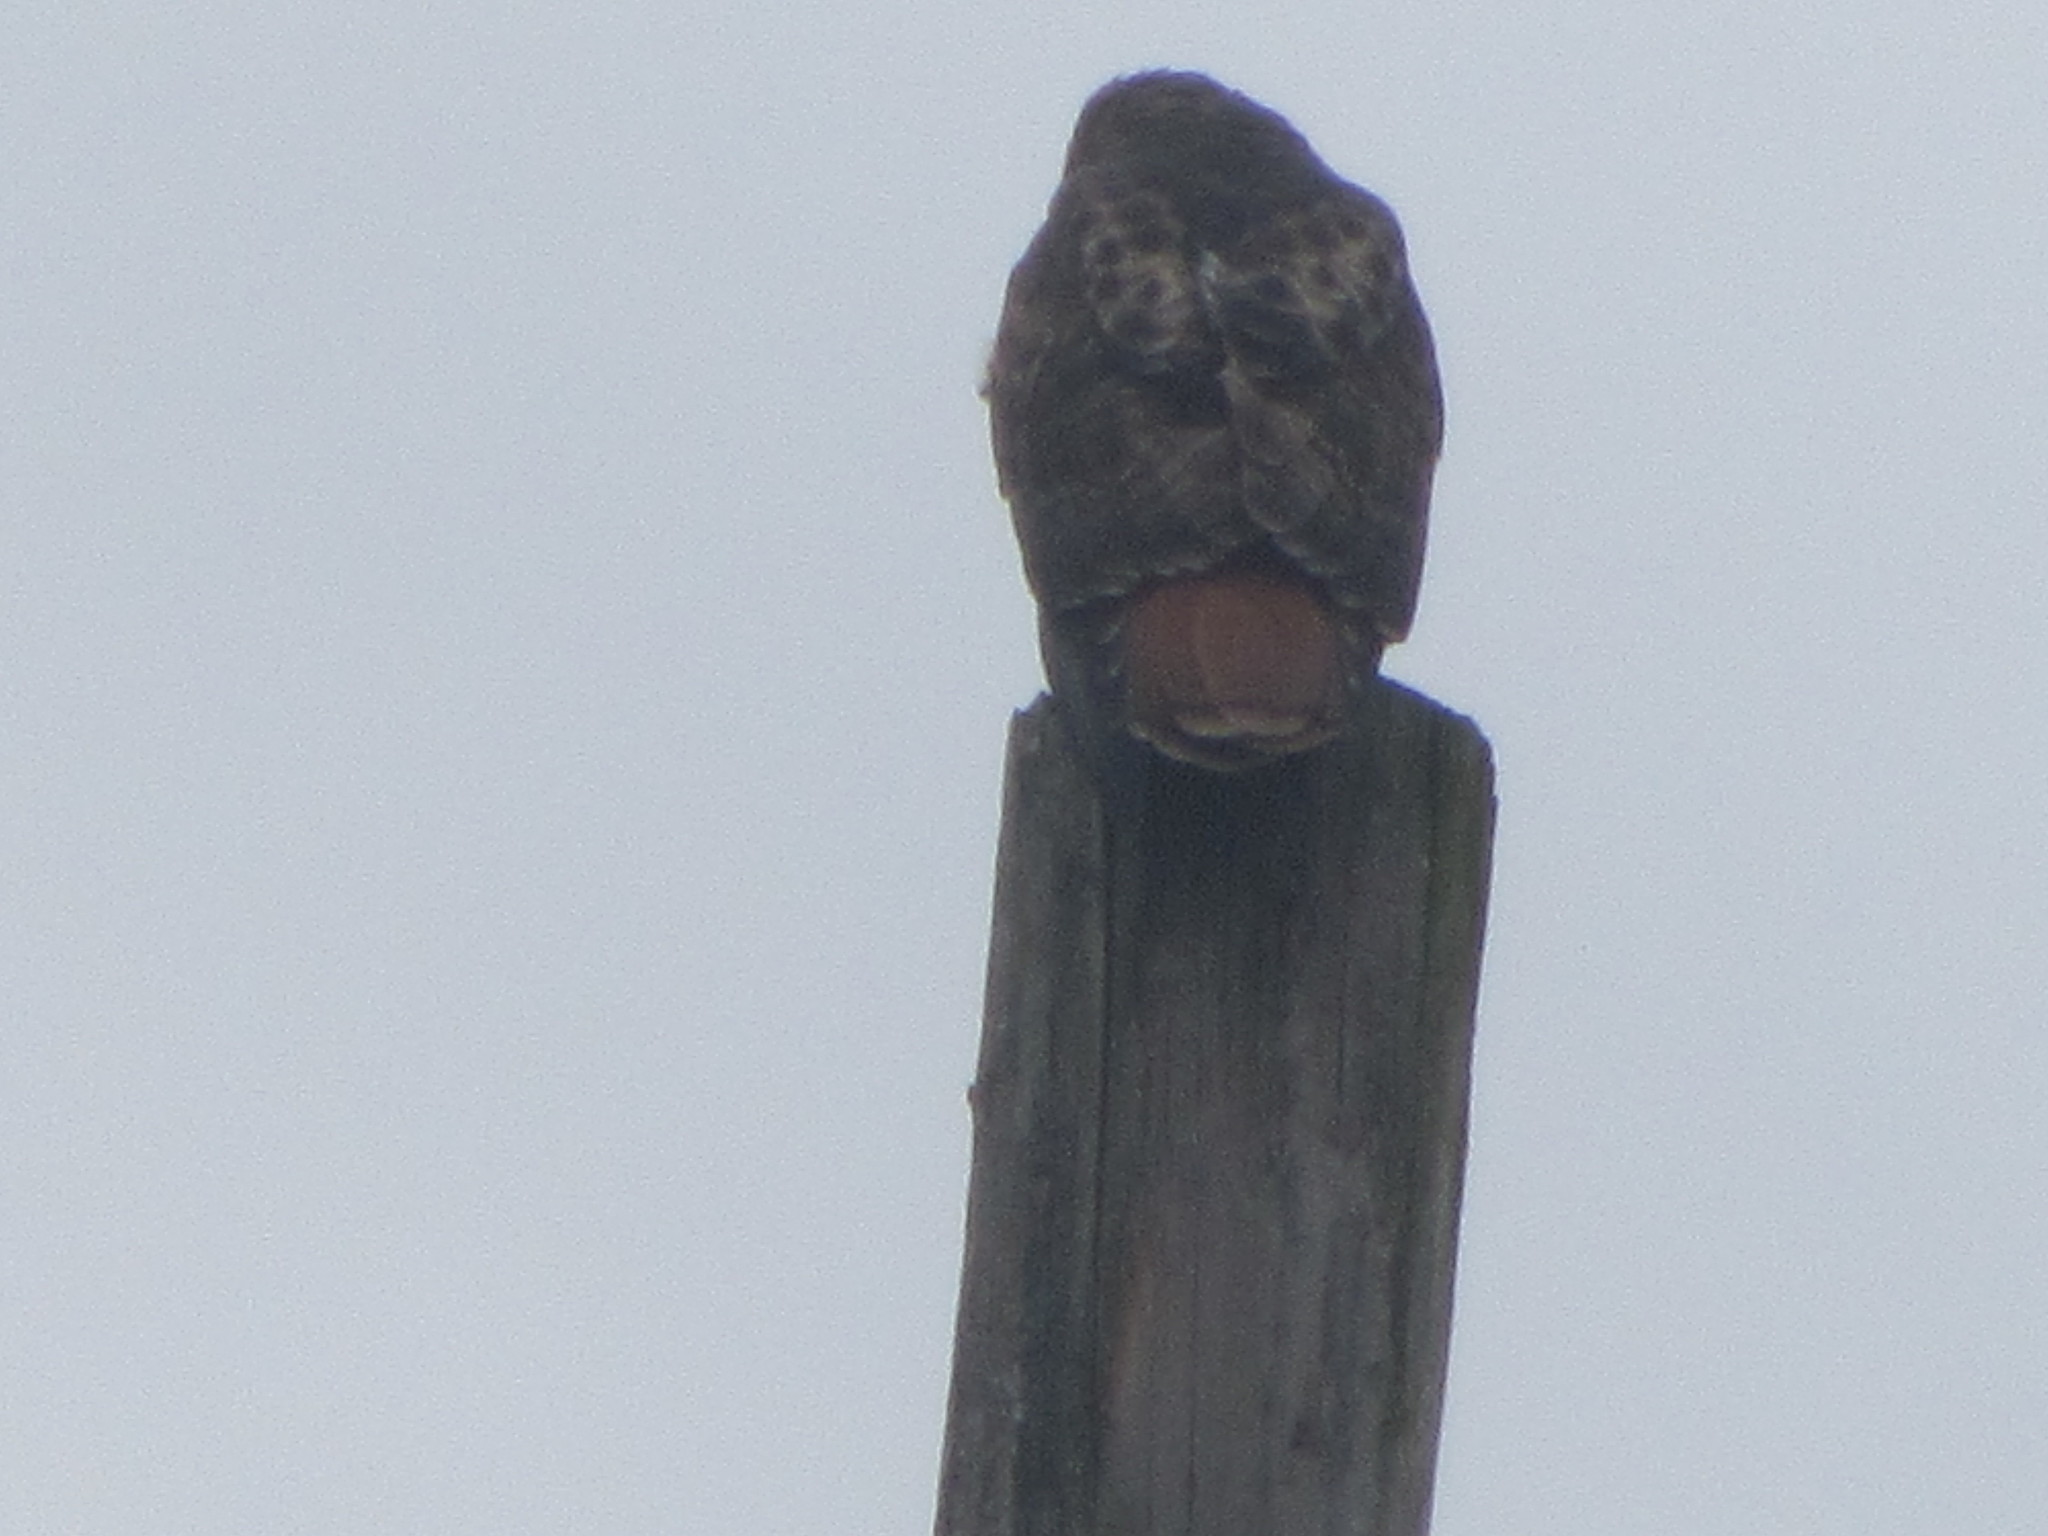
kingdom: Animalia
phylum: Chordata
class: Aves
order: Accipitriformes
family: Accipitridae
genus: Buteo
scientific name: Buteo jamaicensis
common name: Red-tailed hawk
